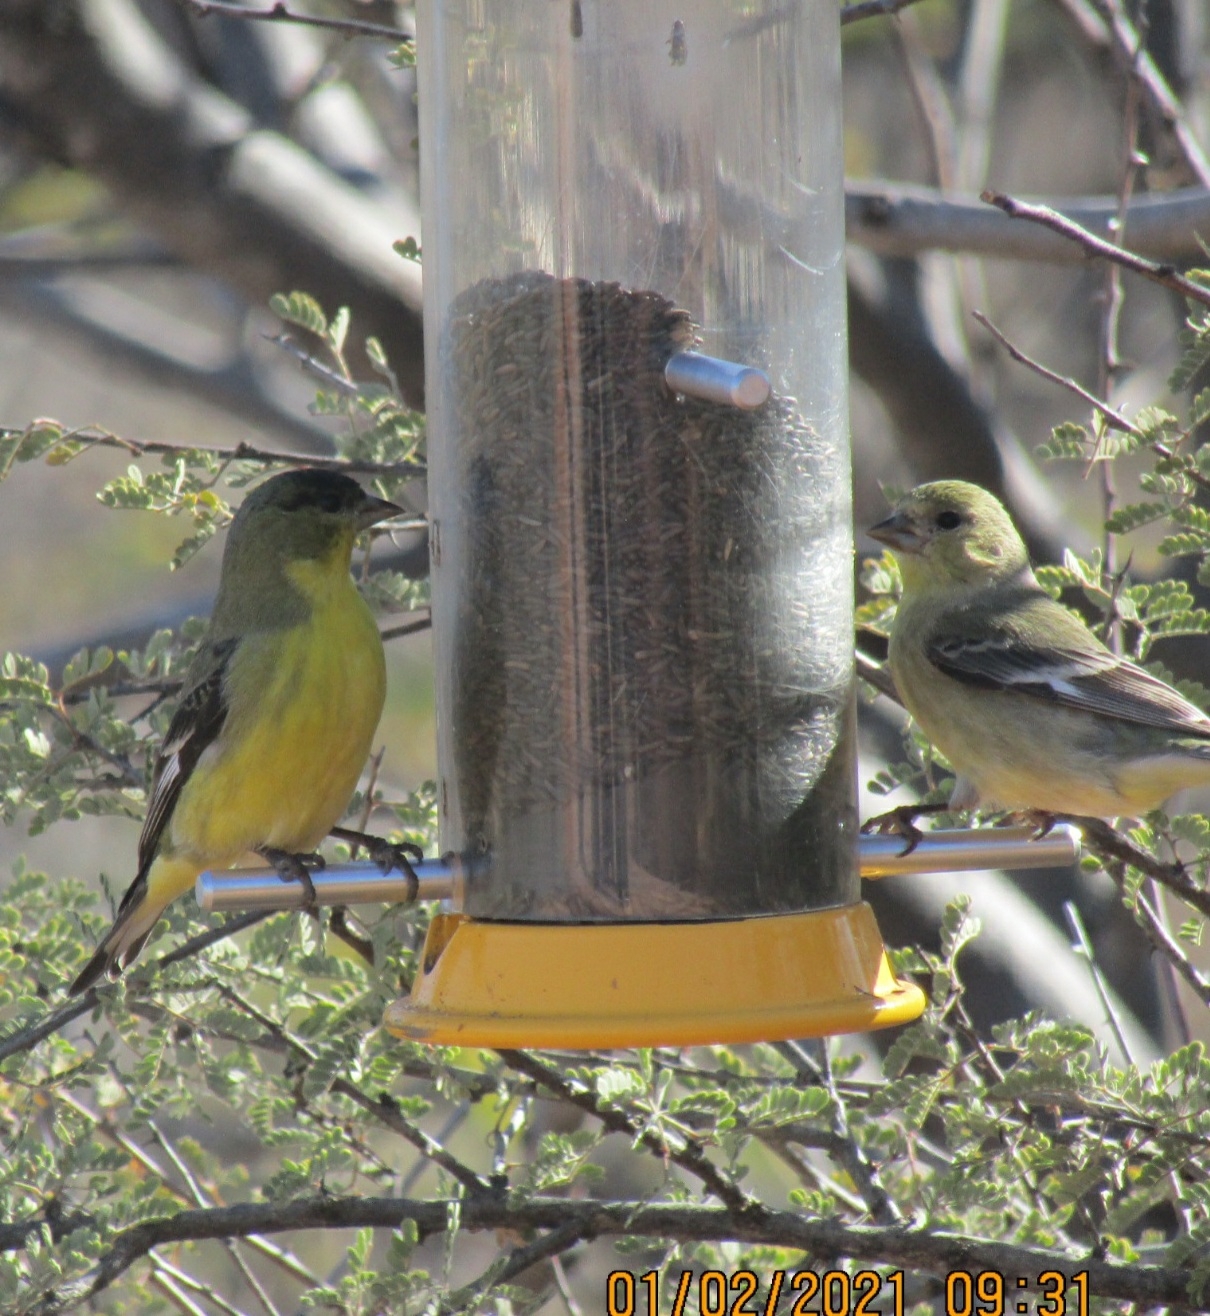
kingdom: Animalia
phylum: Chordata
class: Aves
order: Passeriformes
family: Fringillidae
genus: Spinus
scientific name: Spinus psaltria
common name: Lesser goldfinch
